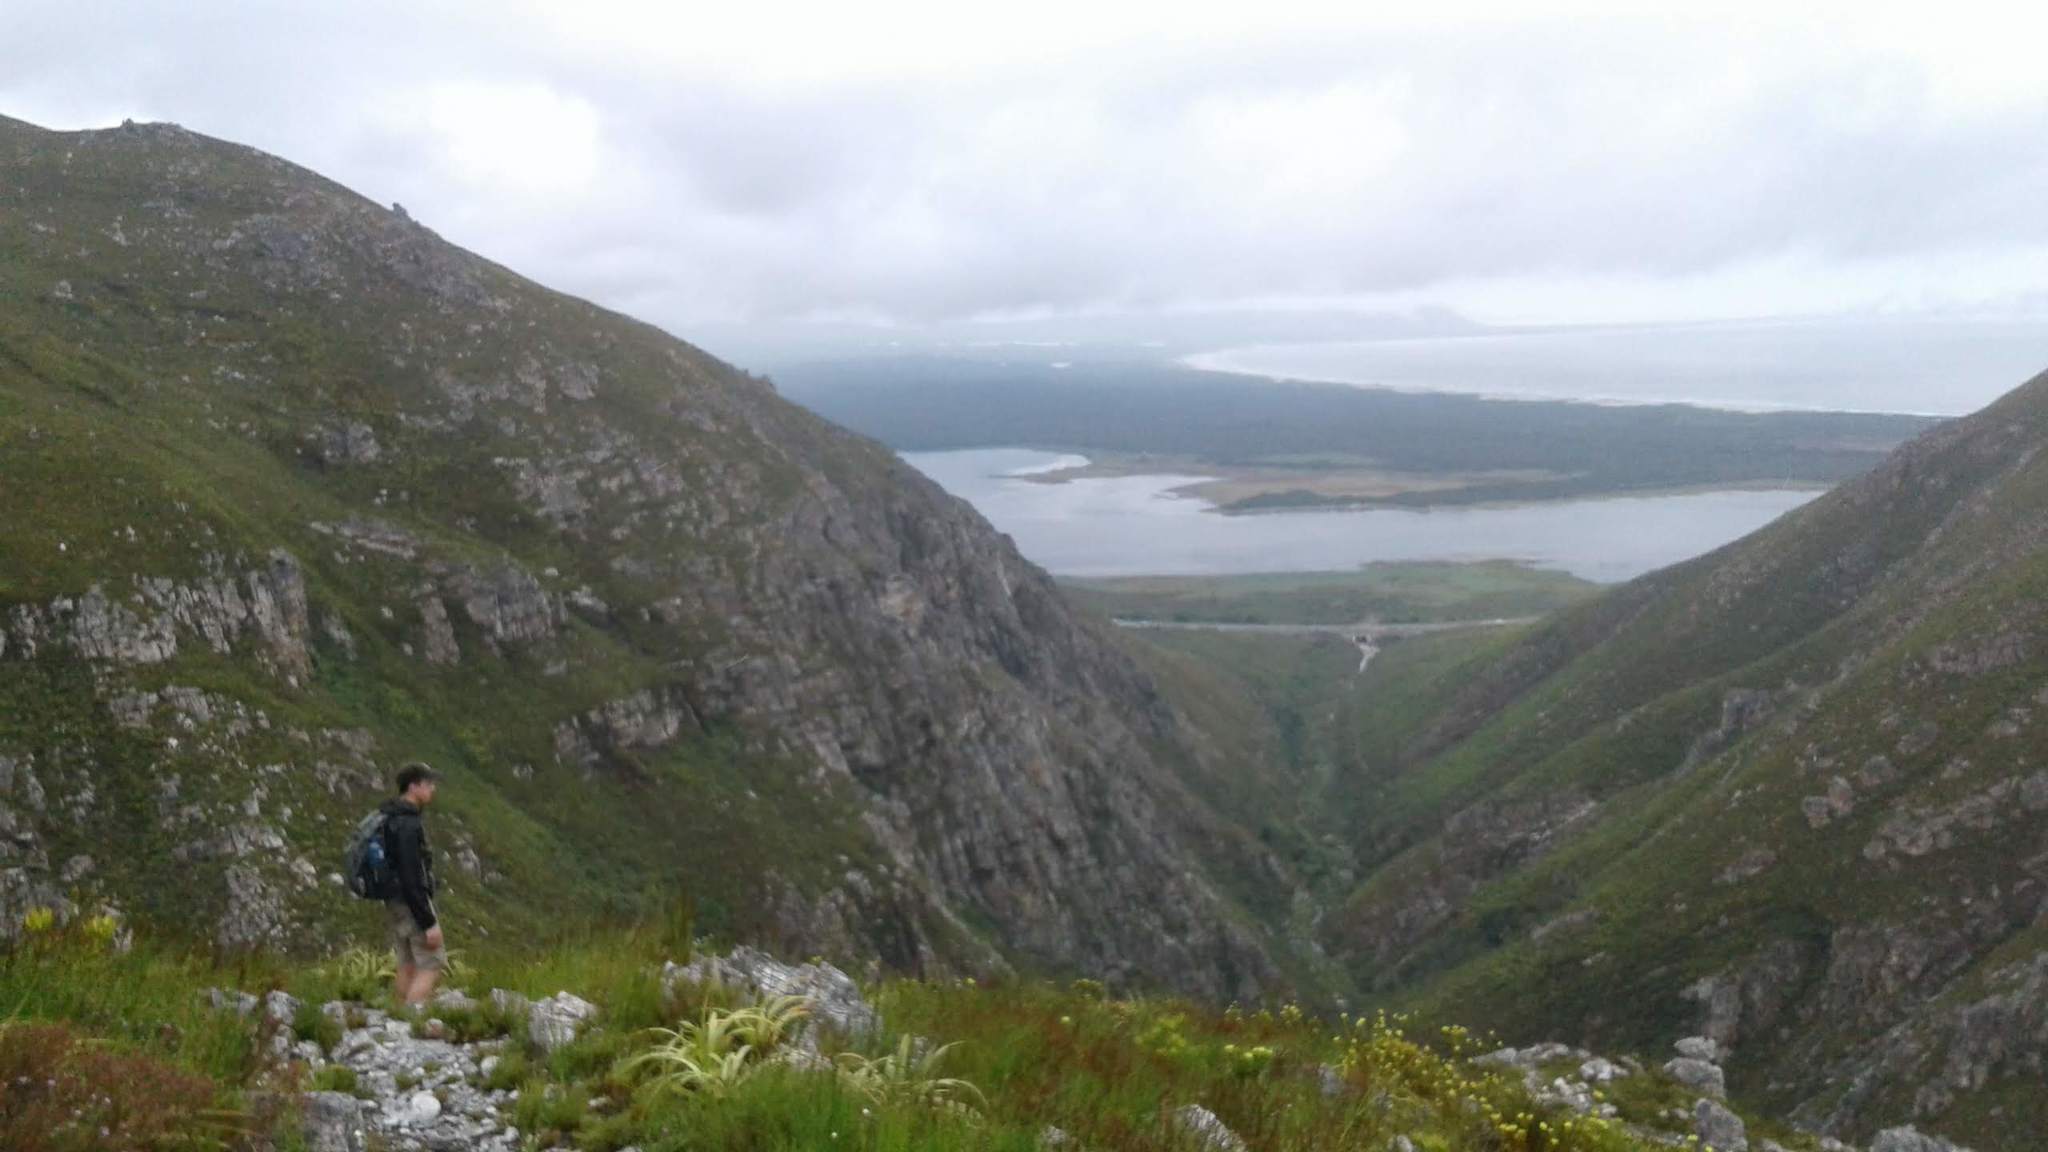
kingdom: Plantae
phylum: Tracheophyta
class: Liliopsida
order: Poales
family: Cyperaceae
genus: Tetraria
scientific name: Tetraria thermalis
